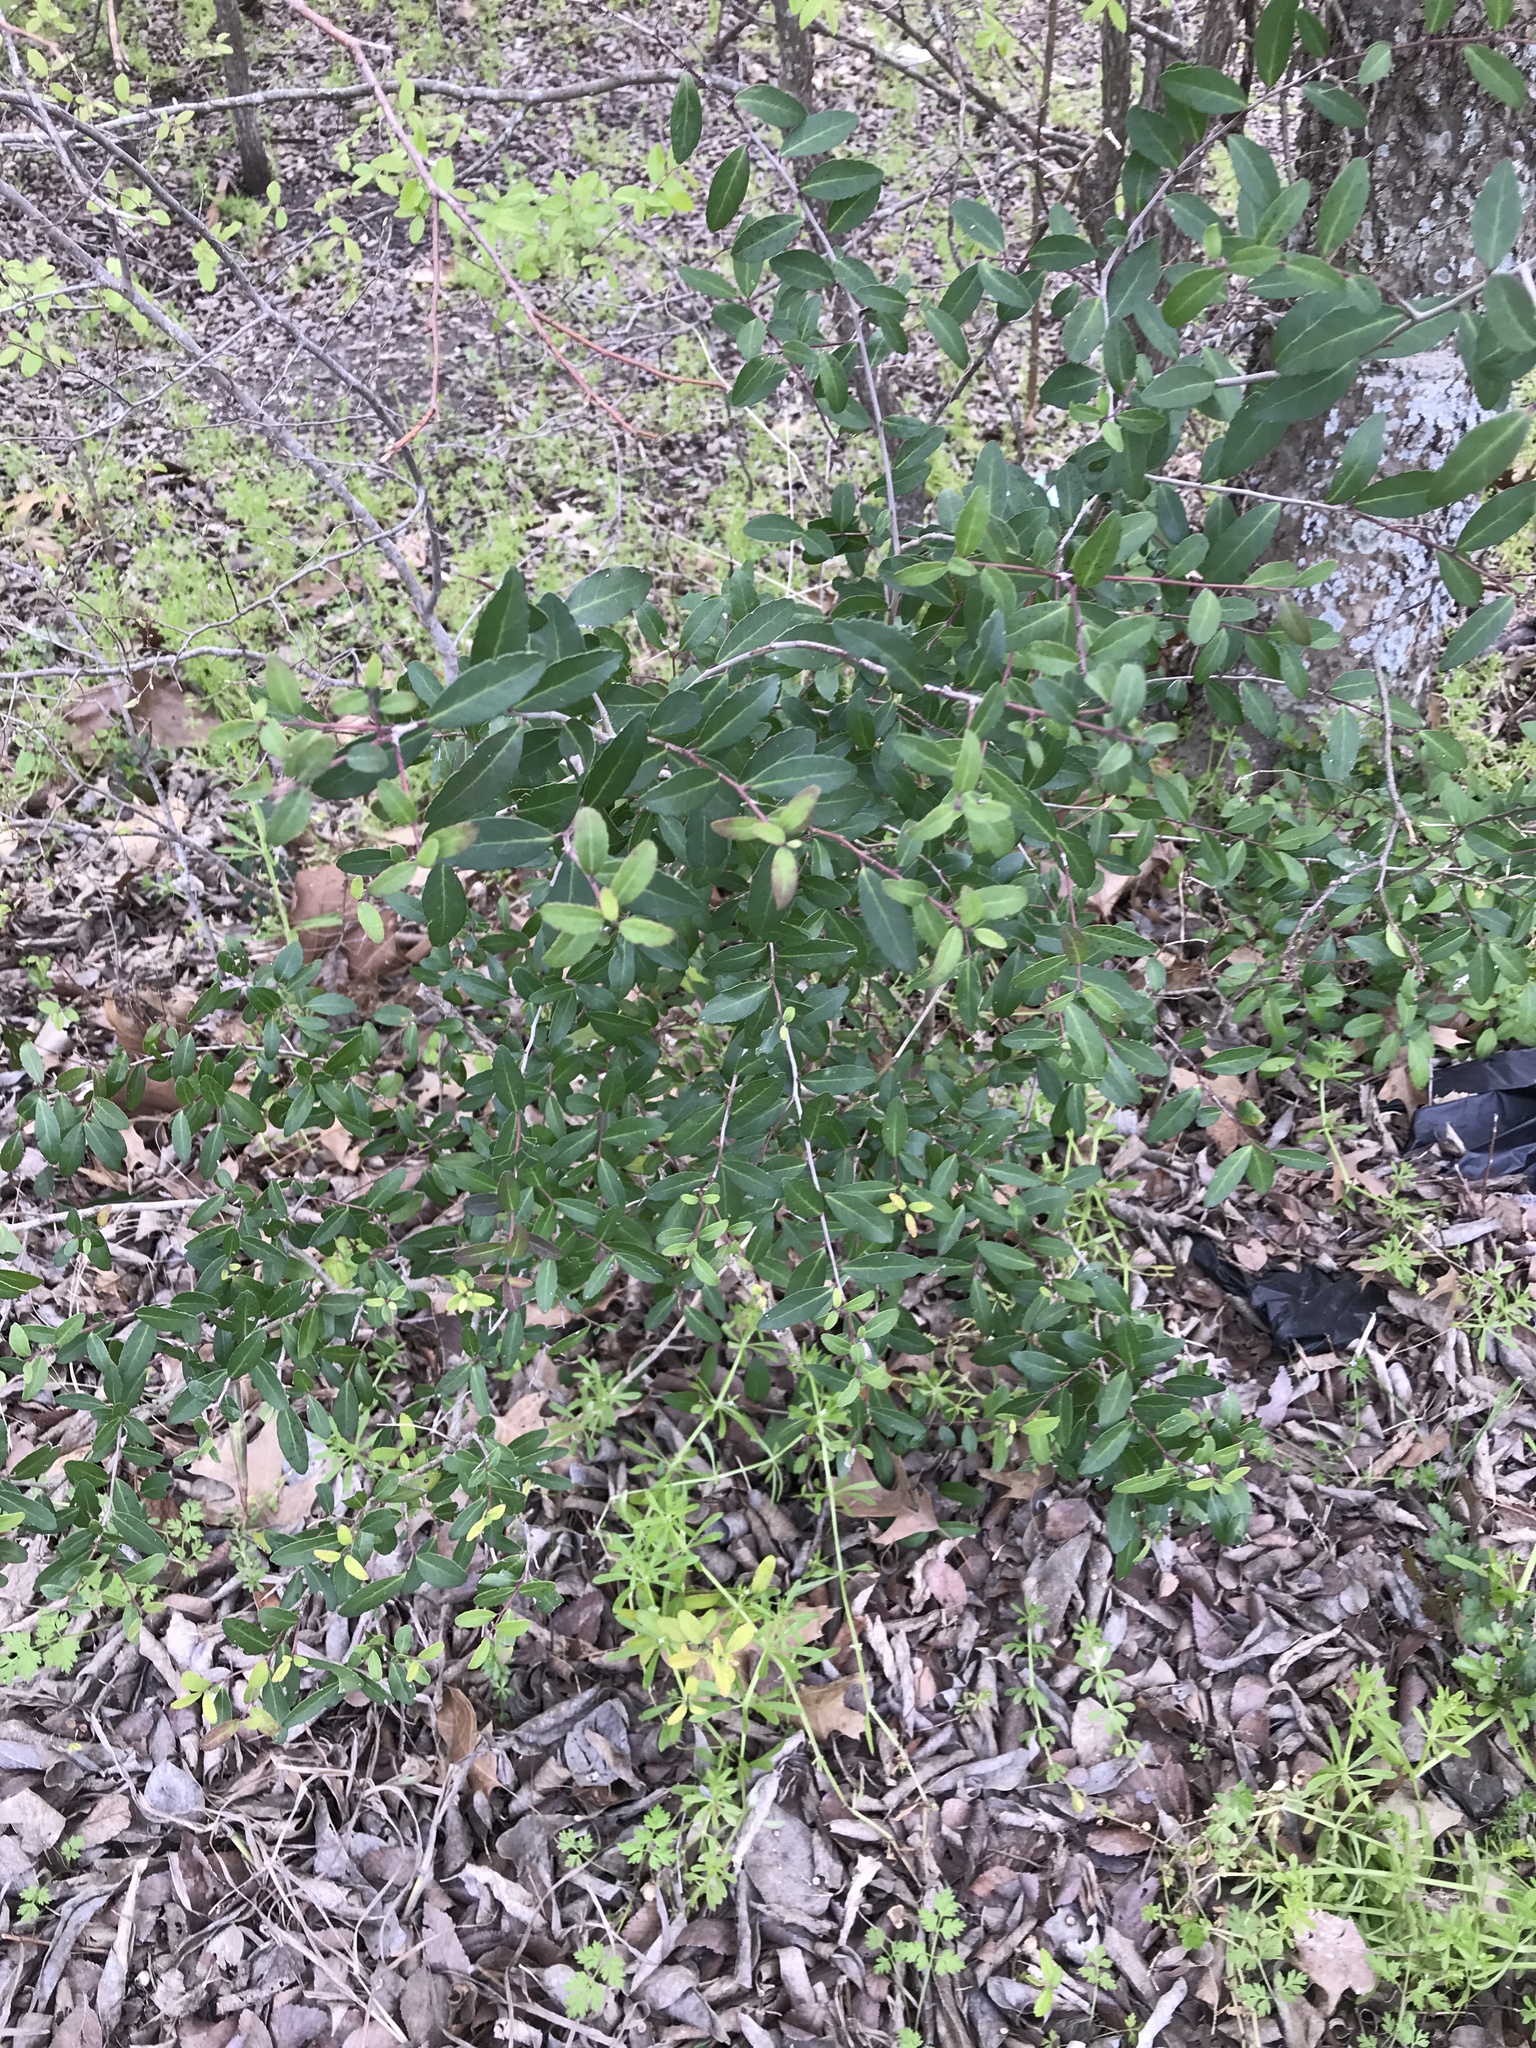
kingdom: Plantae
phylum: Tracheophyta
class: Magnoliopsida
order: Aquifoliales
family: Aquifoliaceae
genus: Ilex
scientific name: Ilex vomitoria
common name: Yaupon holly
